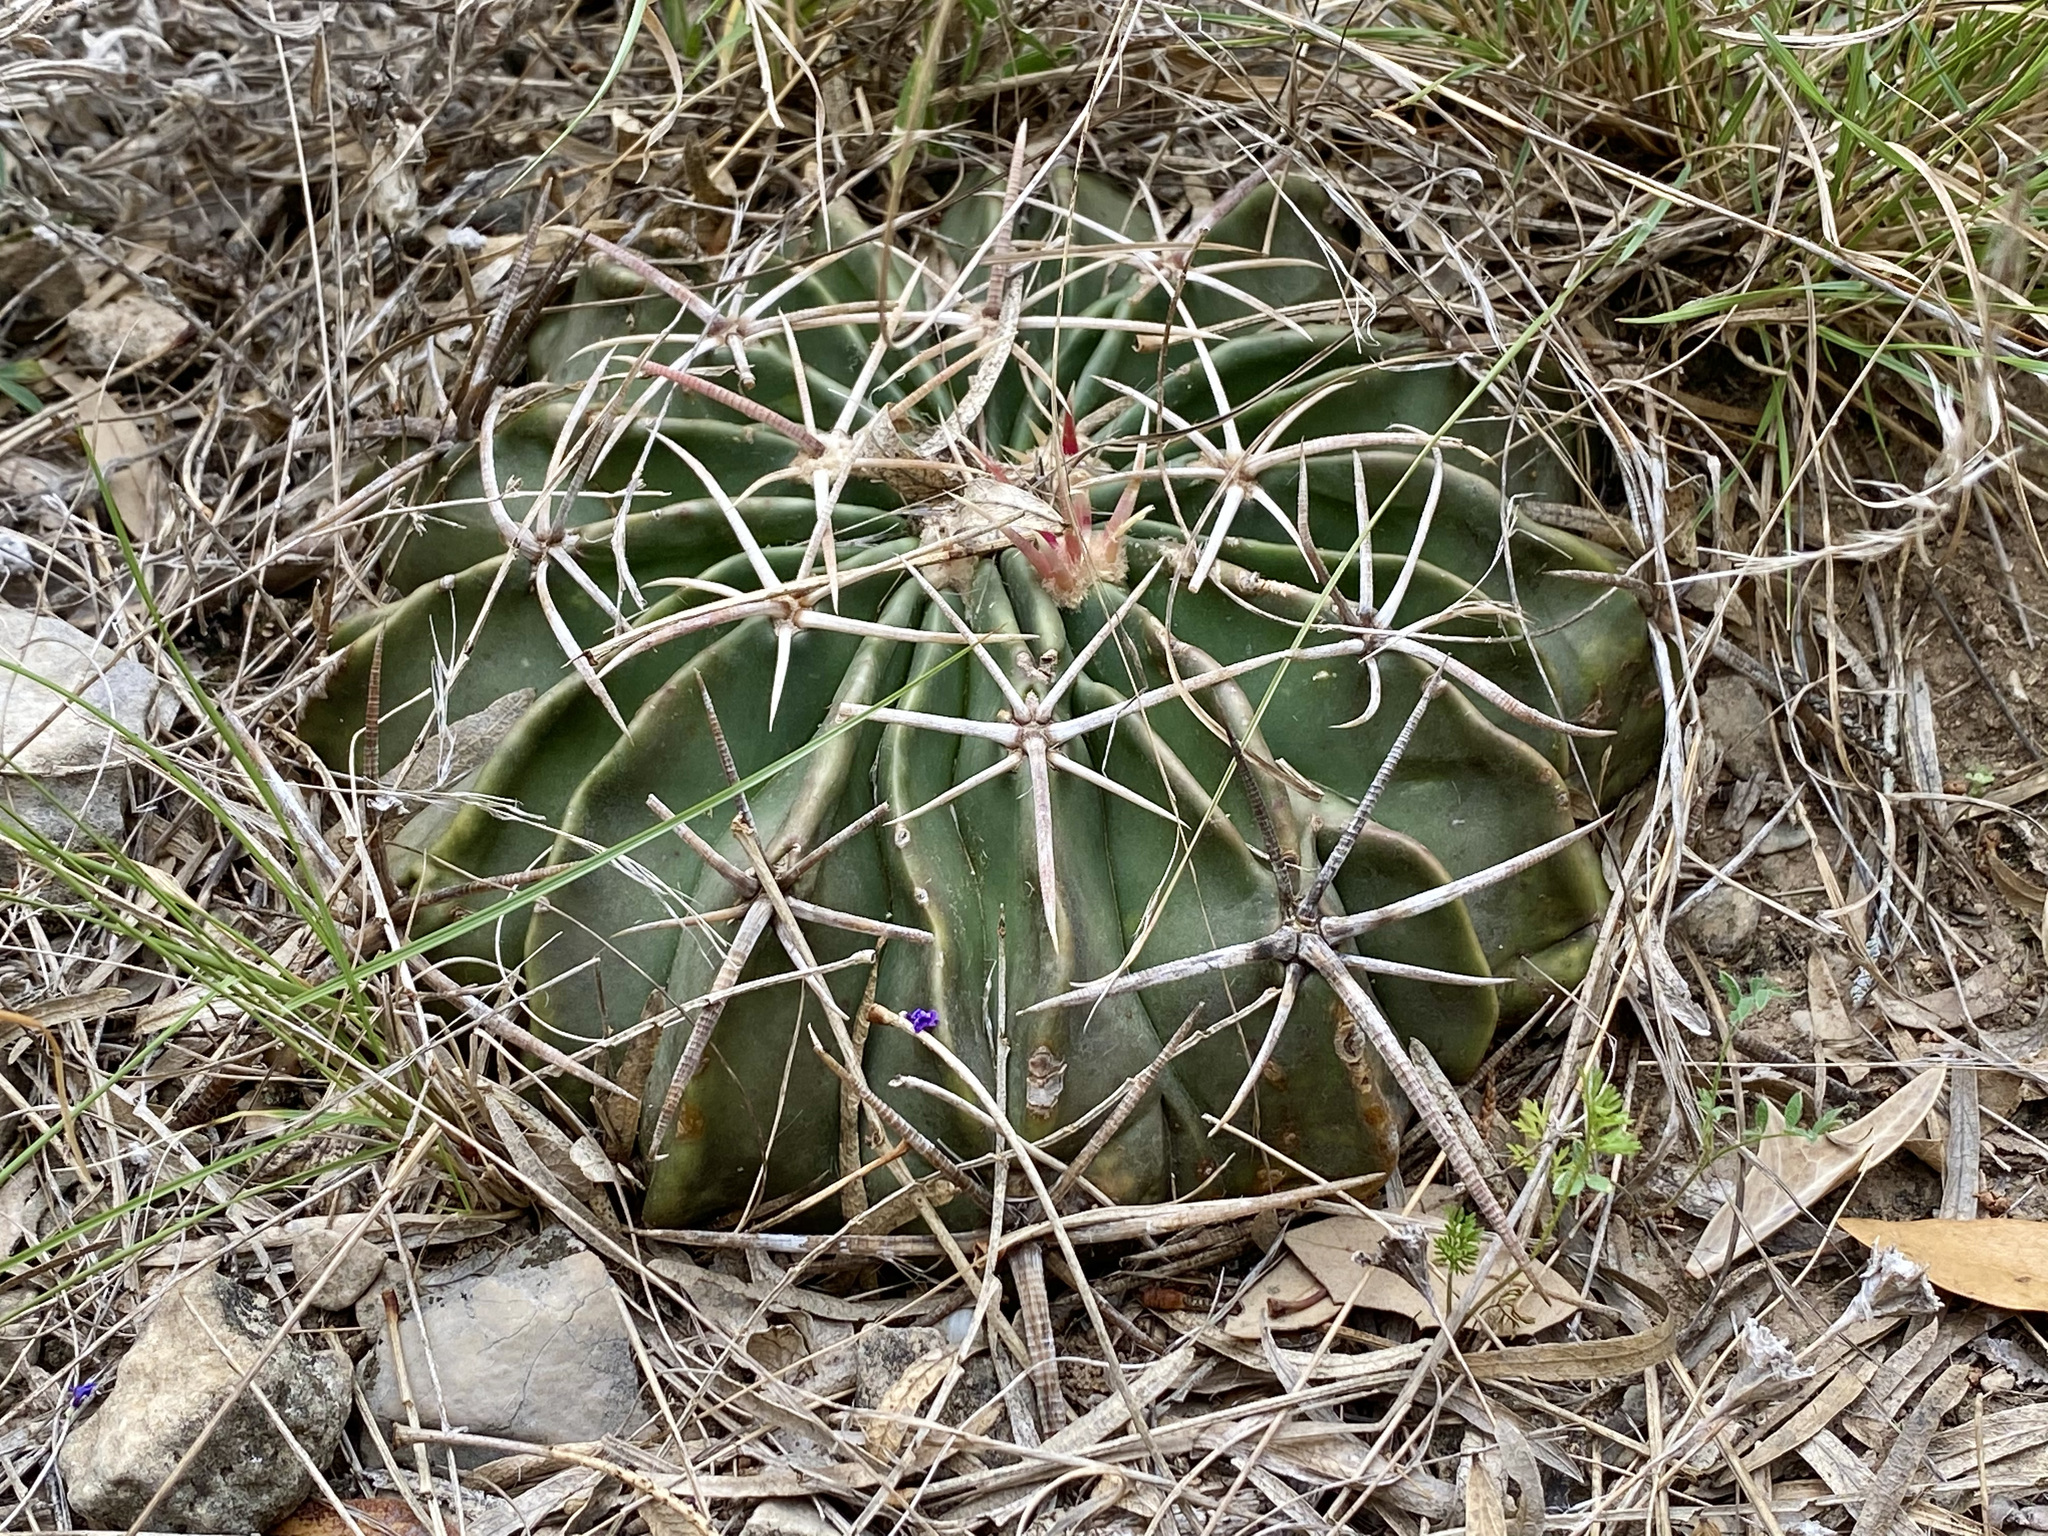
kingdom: Plantae
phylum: Tracheophyta
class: Magnoliopsida
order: Caryophyllales
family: Cactaceae
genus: Echinocactus
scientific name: Echinocactus texensis
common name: Devil's pincushion
